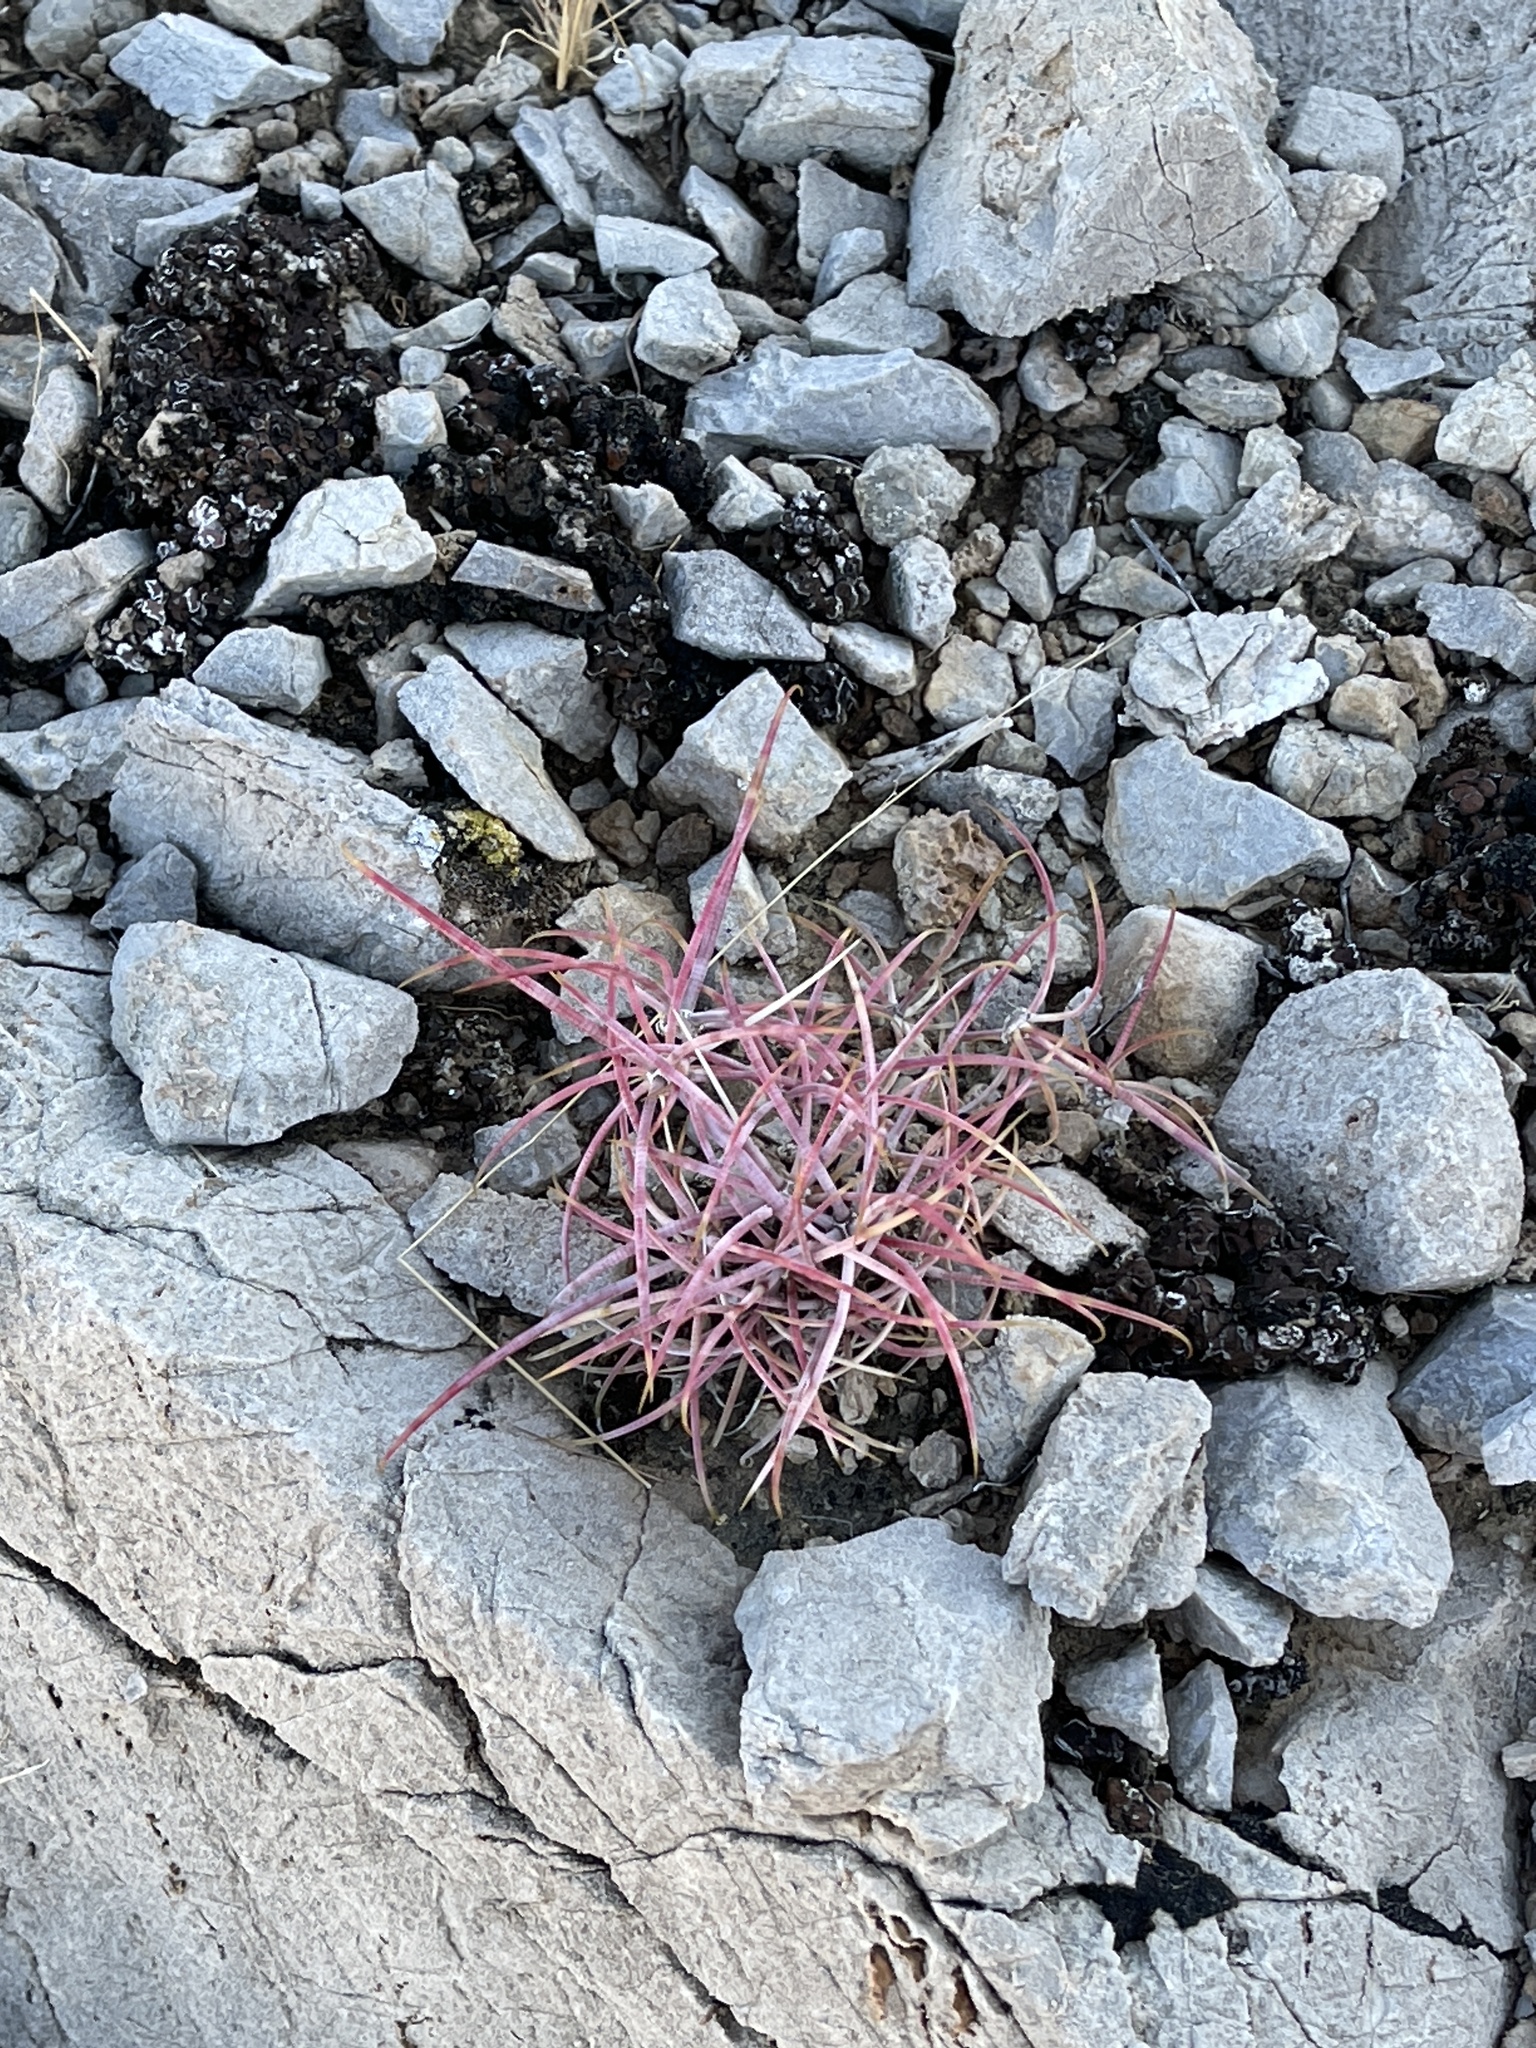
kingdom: Plantae
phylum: Tracheophyta
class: Magnoliopsida
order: Caryophyllales
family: Cactaceae
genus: Ferocactus
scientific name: Ferocactus cylindraceus
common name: California barrel cactus
